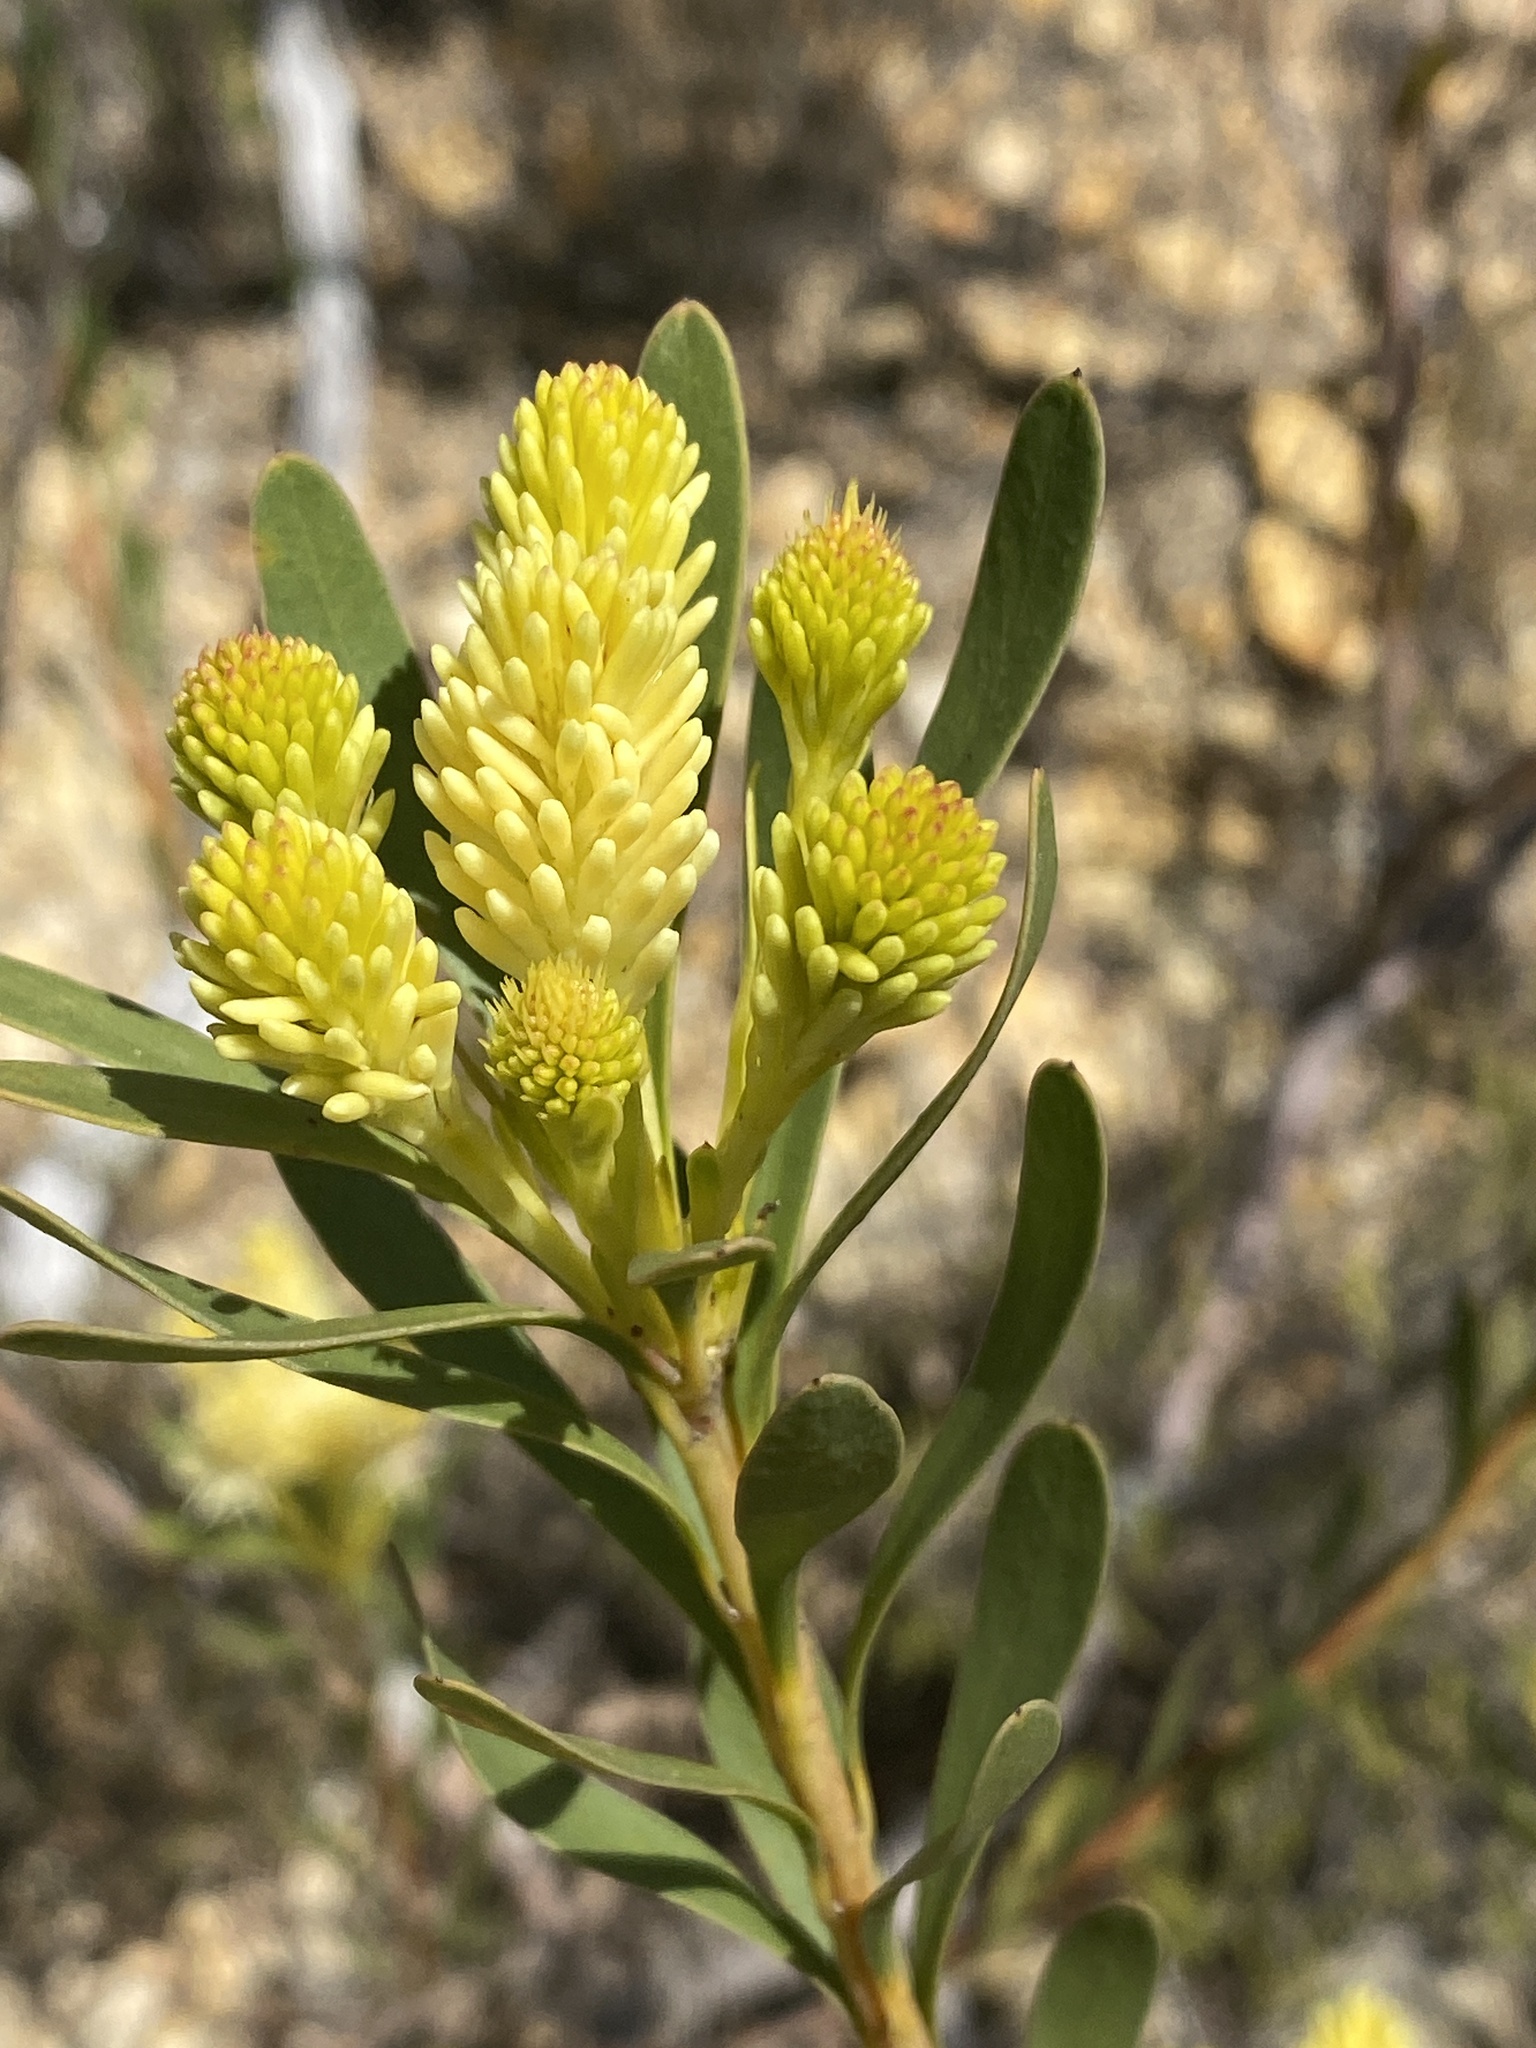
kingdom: Plantae
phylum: Tracheophyta
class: Magnoliopsida
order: Proteales
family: Proteaceae
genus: Aulax
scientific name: Aulax umbellata
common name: Broad-leaf featherbush
